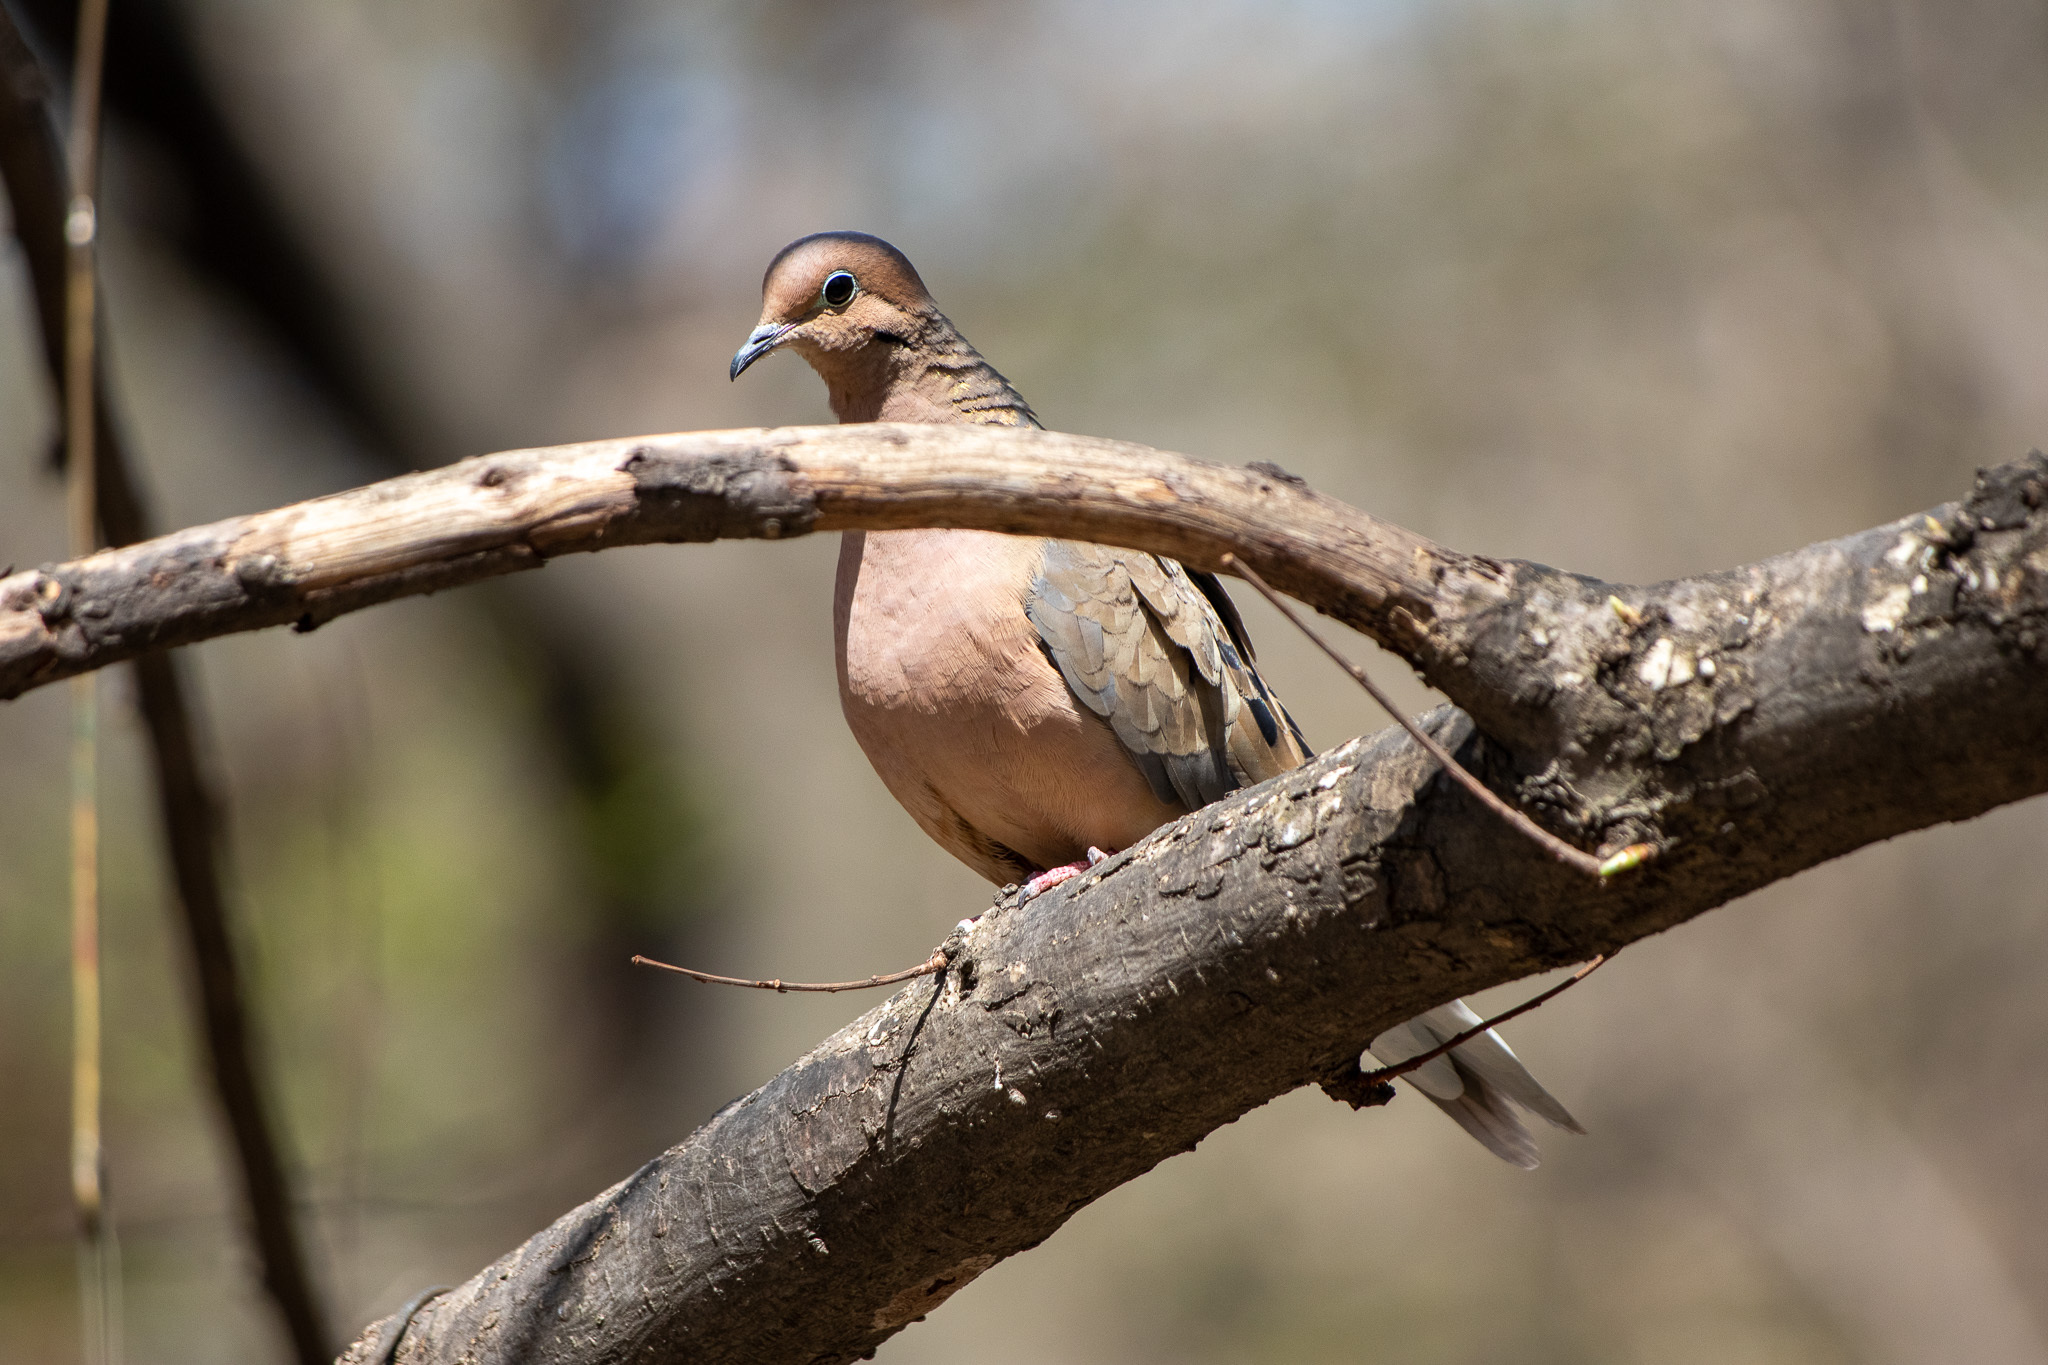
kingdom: Animalia
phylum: Chordata
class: Aves
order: Columbiformes
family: Columbidae
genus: Zenaida
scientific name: Zenaida macroura
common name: Mourning dove
